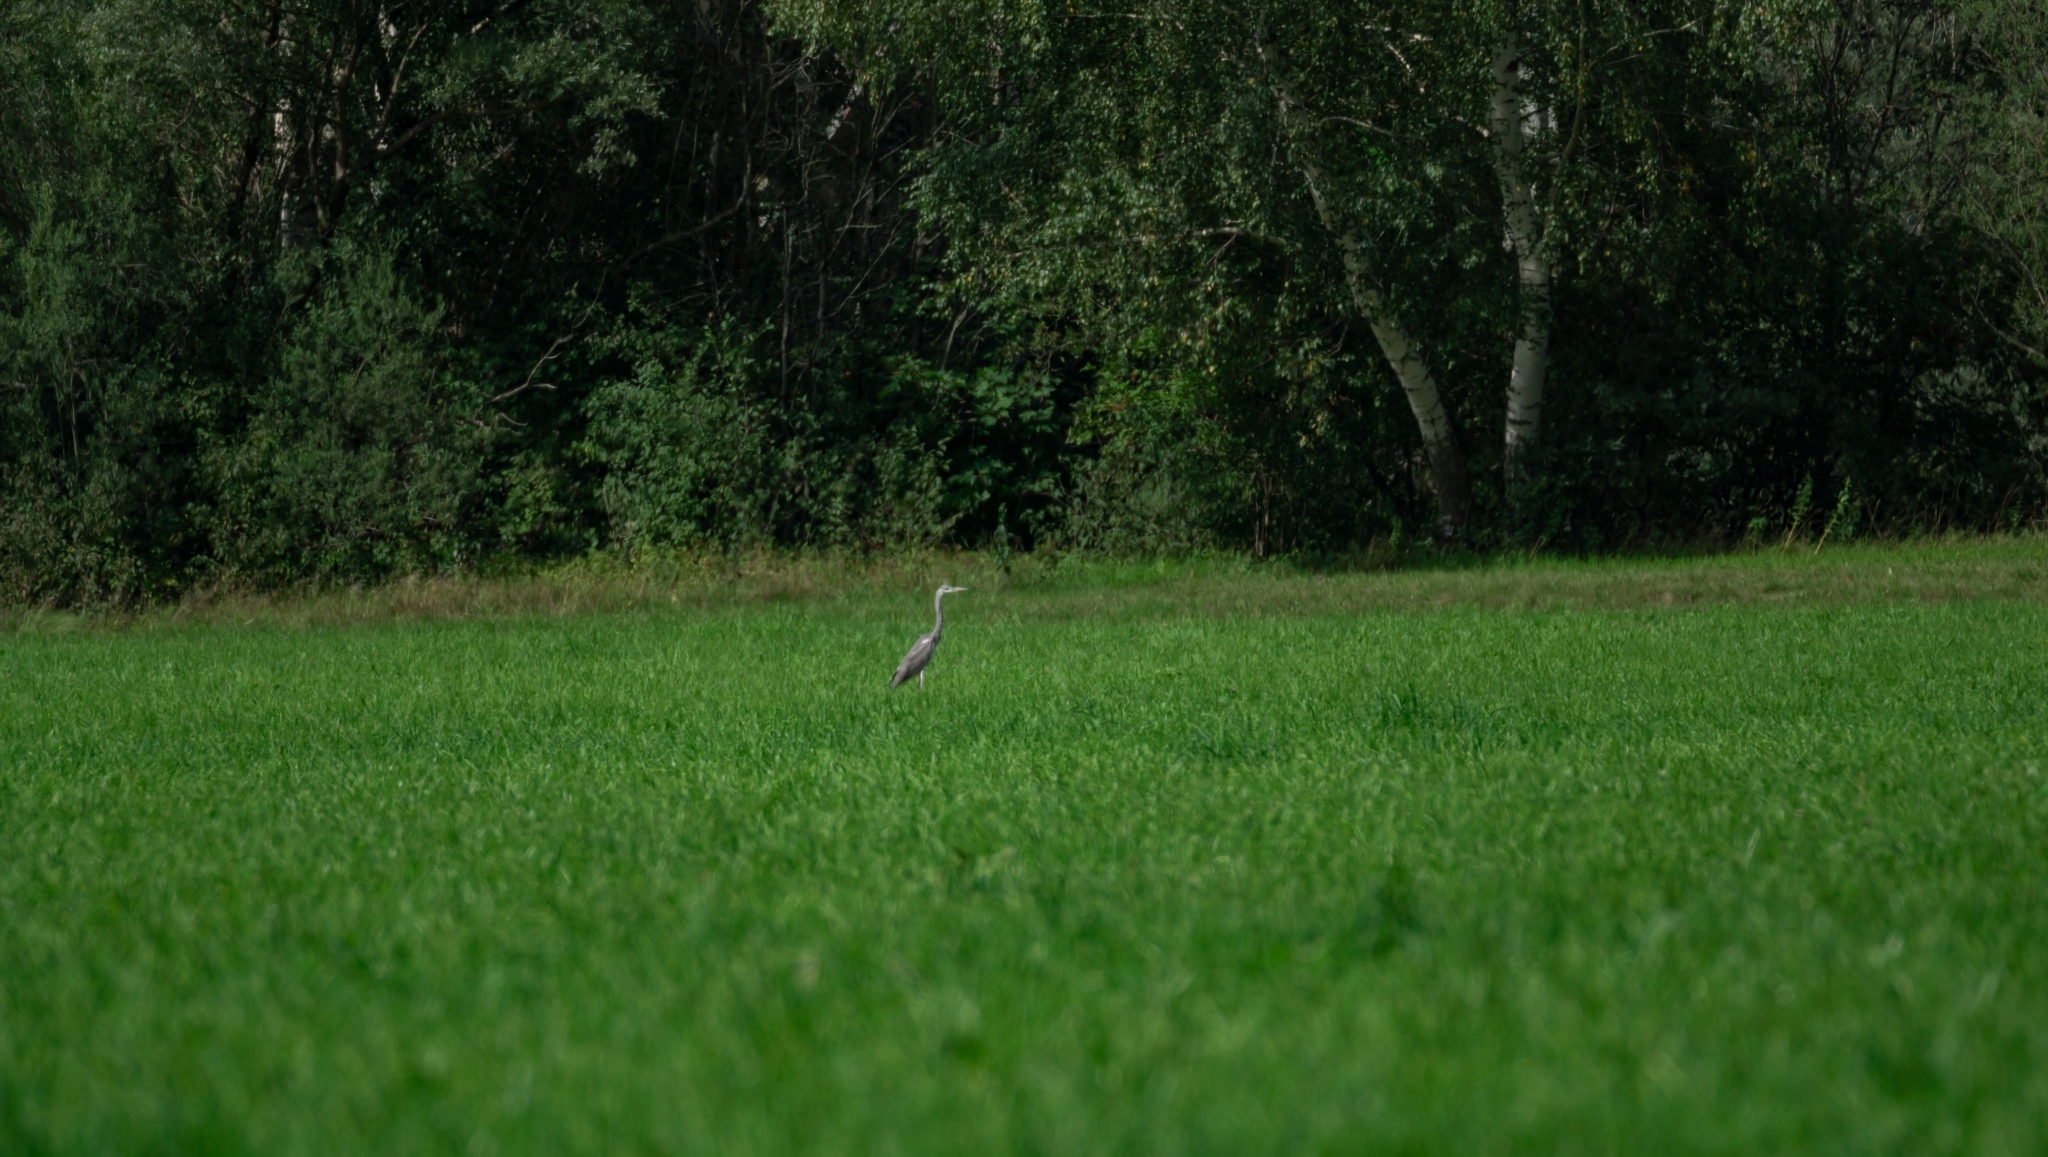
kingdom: Animalia
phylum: Chordata
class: Aves
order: Pelecaniformes
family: Ardeidae
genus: Ardea
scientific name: Ardea cinerea
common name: Grey heron
